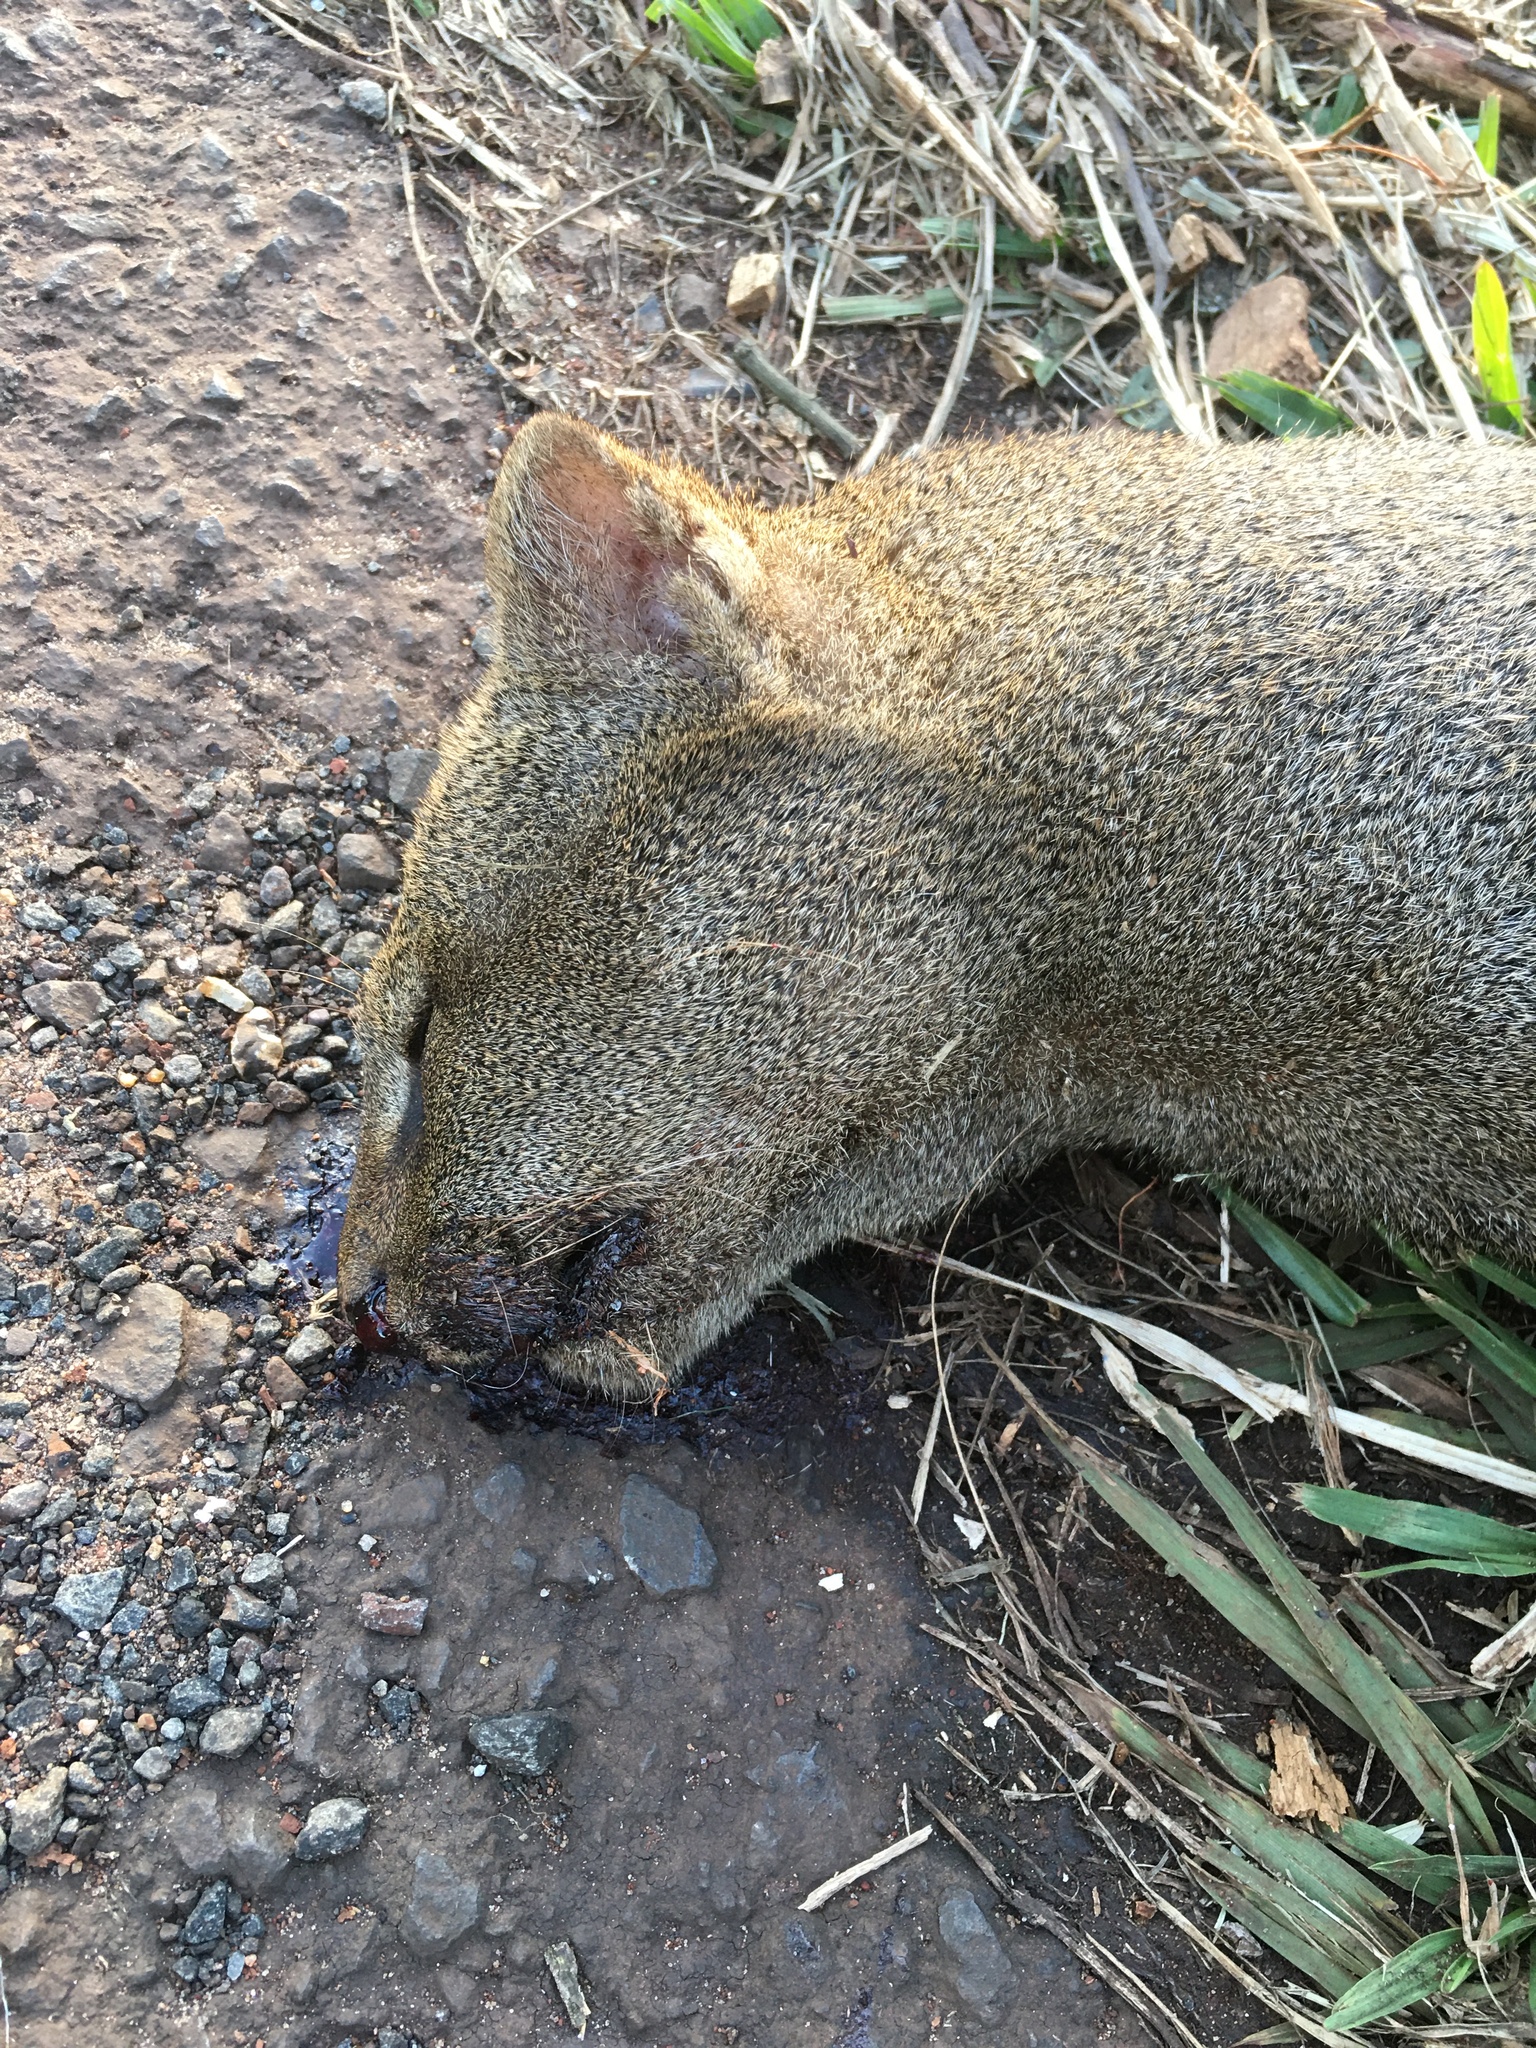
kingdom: Animalia
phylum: Chordata
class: Mammalia
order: Carnivora
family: Felidae
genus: Puma
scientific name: Puma yagouaroundi
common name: Jaguarundi
